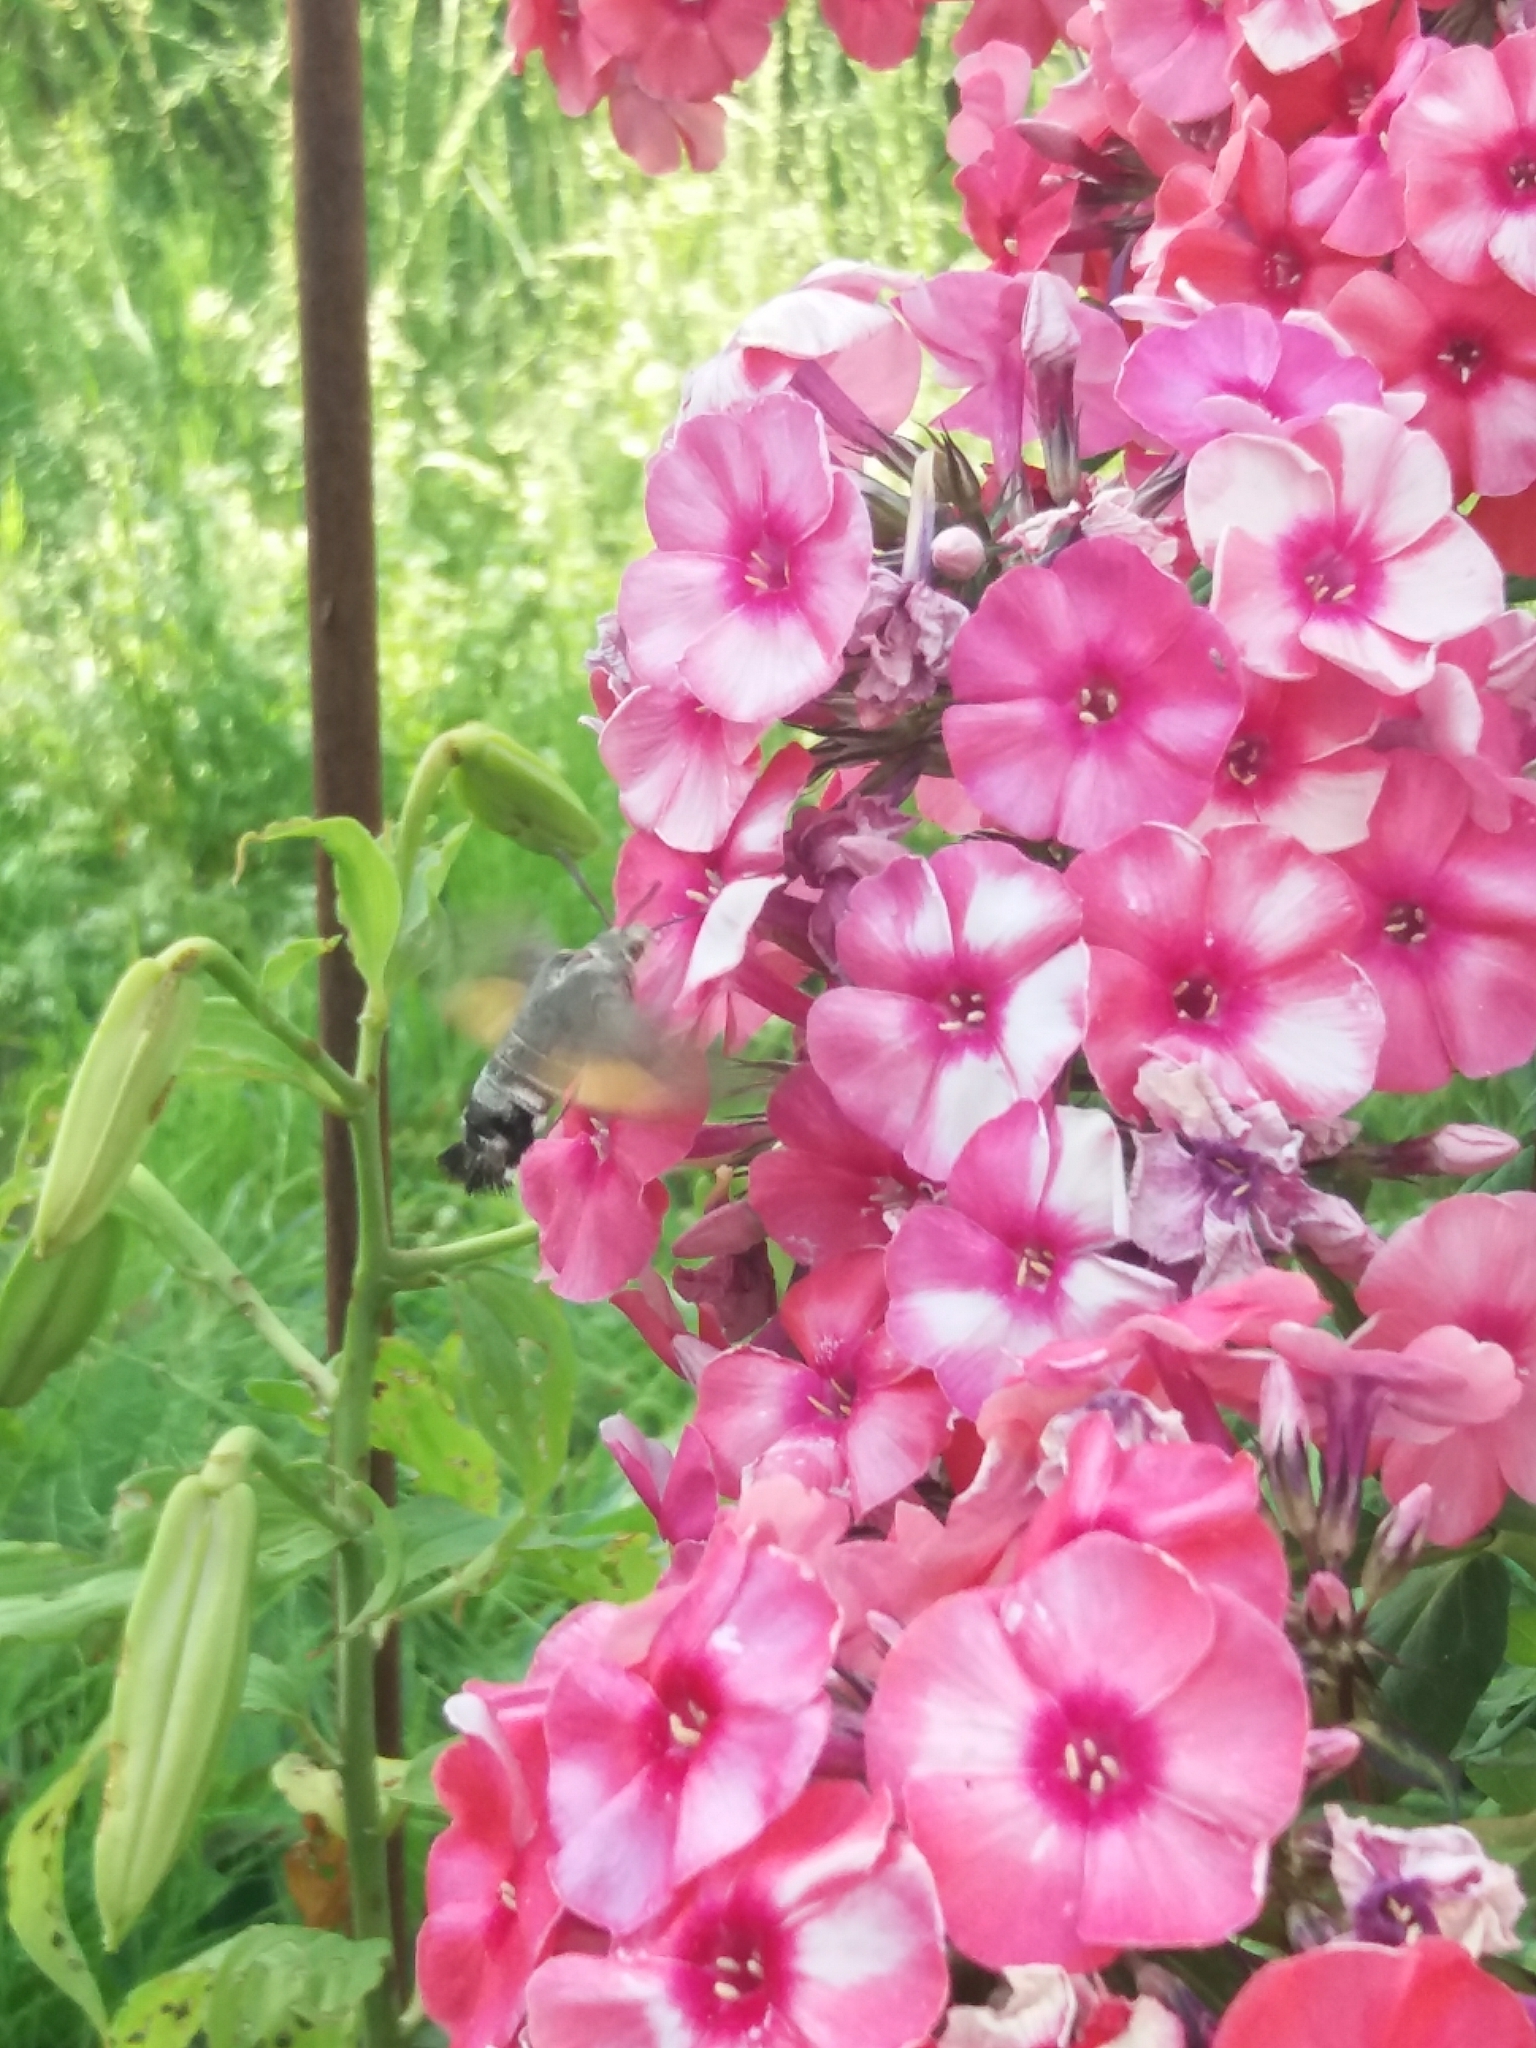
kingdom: Animalia
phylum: Arthropoda
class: Insecta
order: Lepidoptera
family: Sphingidae
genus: Macroglossum
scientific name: Macroglossum stellatarum
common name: Humming-bird hawk-moth
